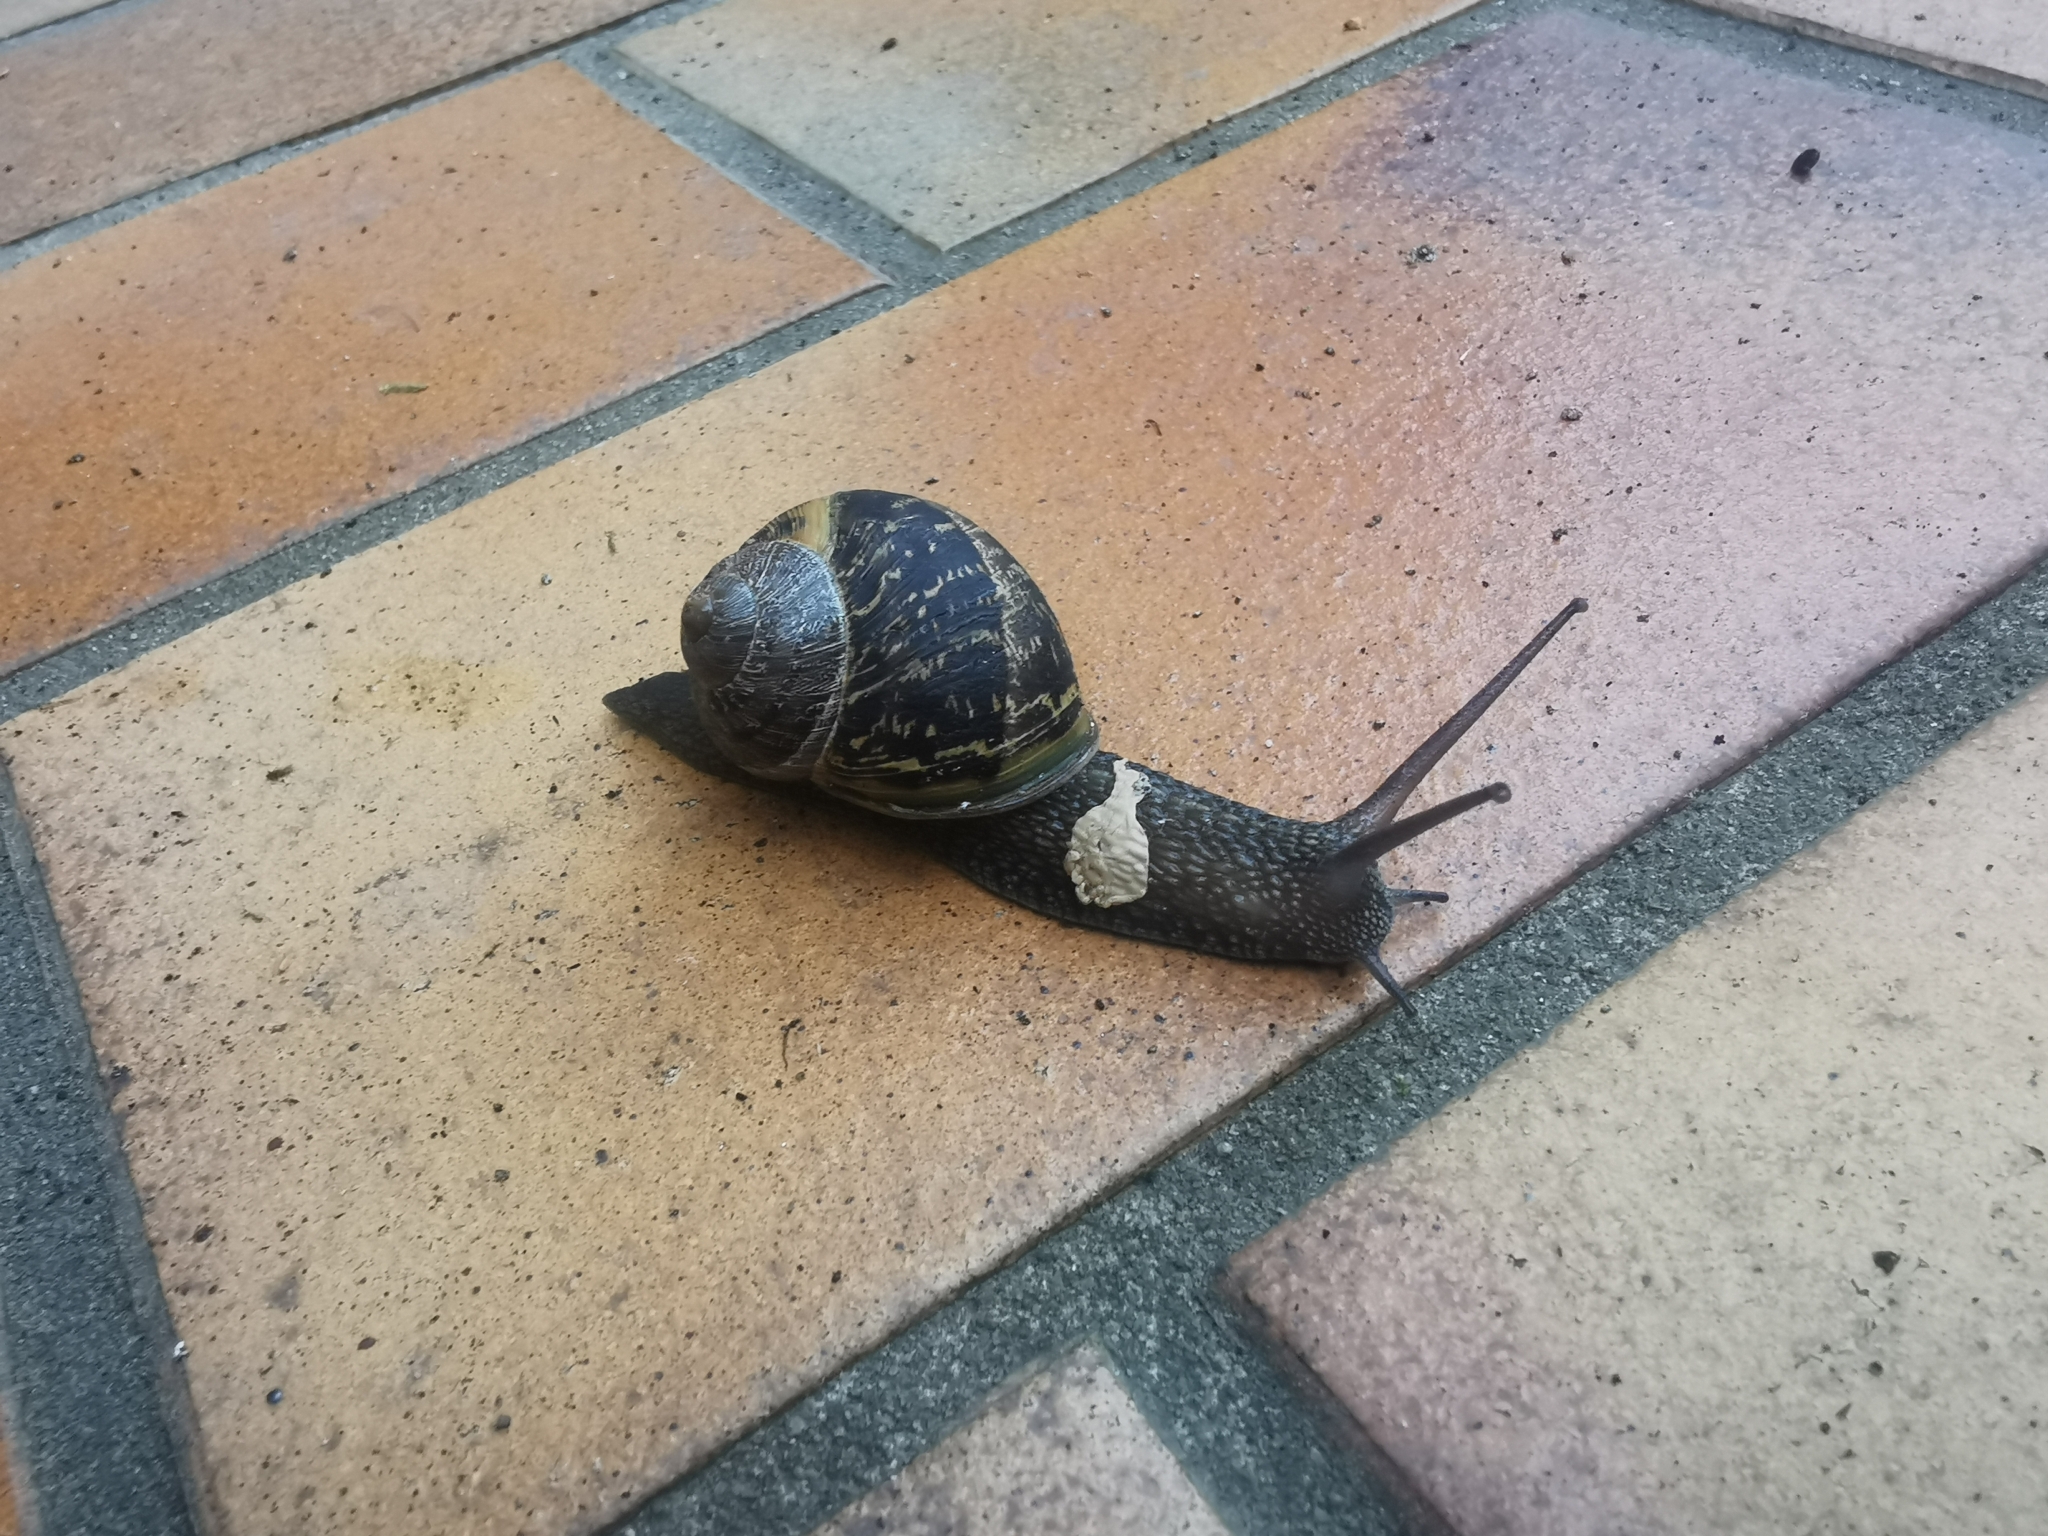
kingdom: Animalia
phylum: Mollusca
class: Gastropoda
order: Stylommatophora
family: Helicidae
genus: Cornu
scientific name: Cornu aspersum
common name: Brown garden snail
